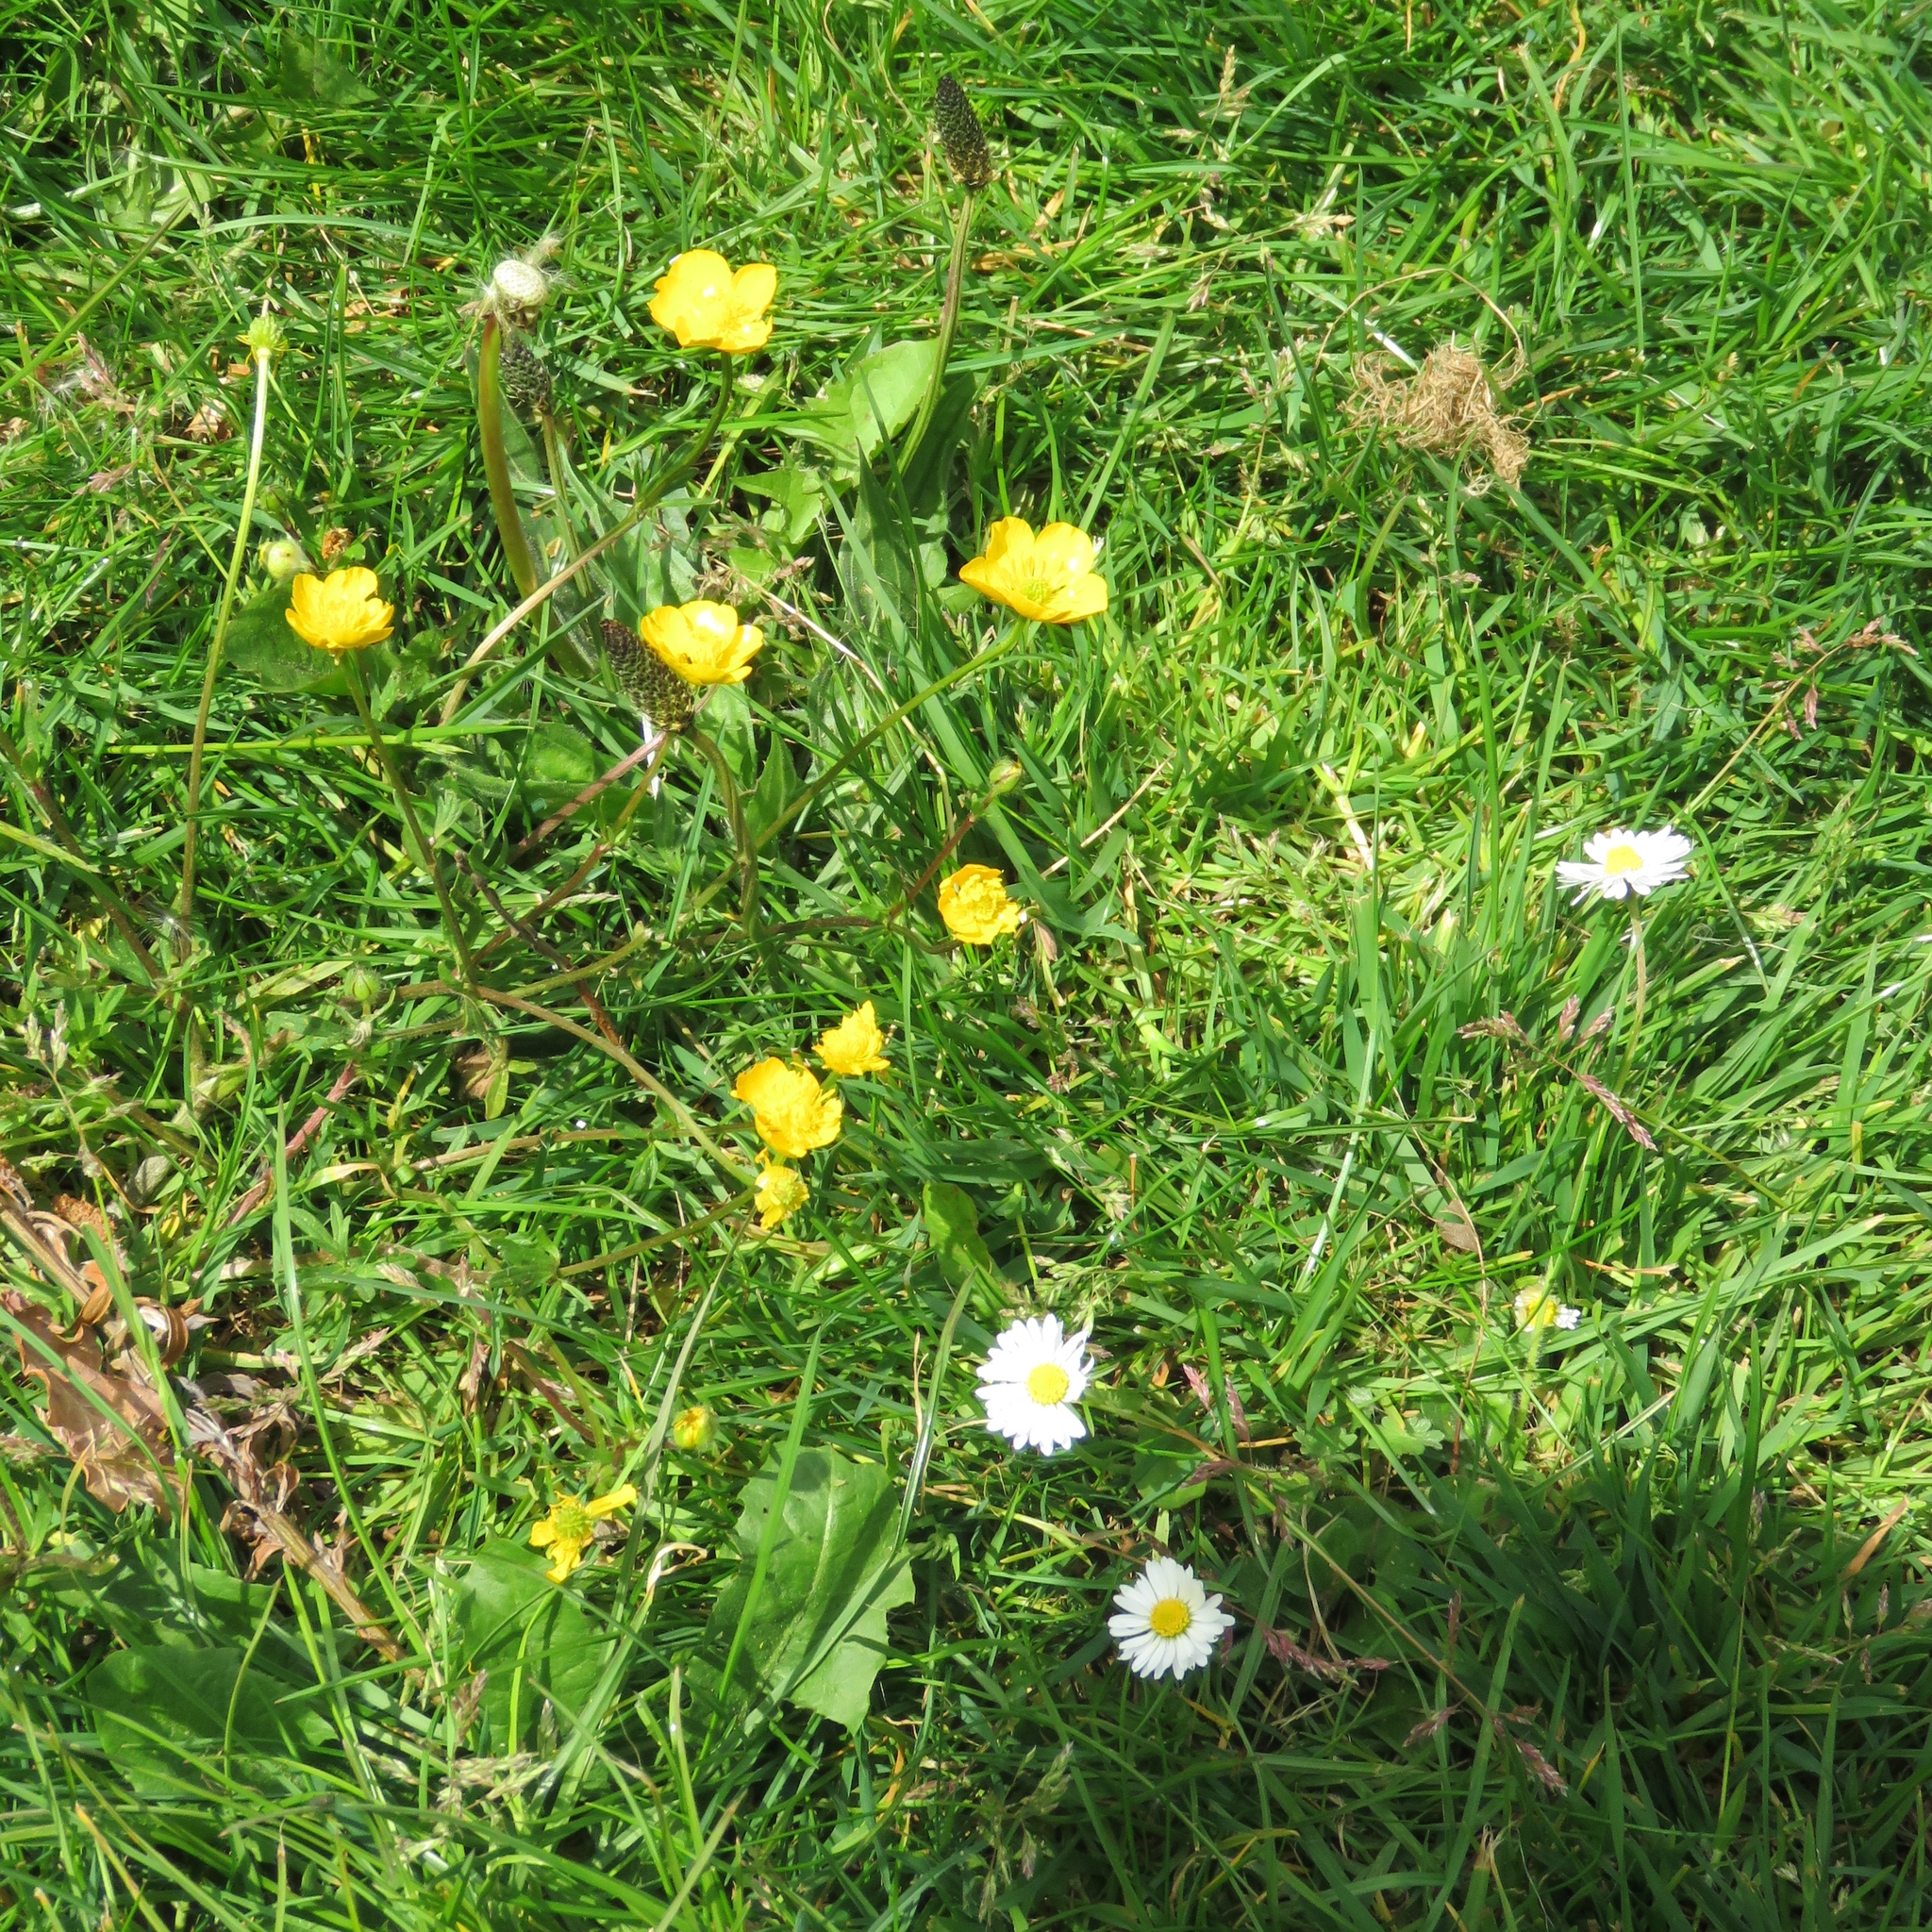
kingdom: Plantae
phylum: Tracheophyta
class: Magnoliopsida
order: Lamiales
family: Plantaginaceae
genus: Plantago
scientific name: Plantago lanceolata
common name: Ribwort plantain
